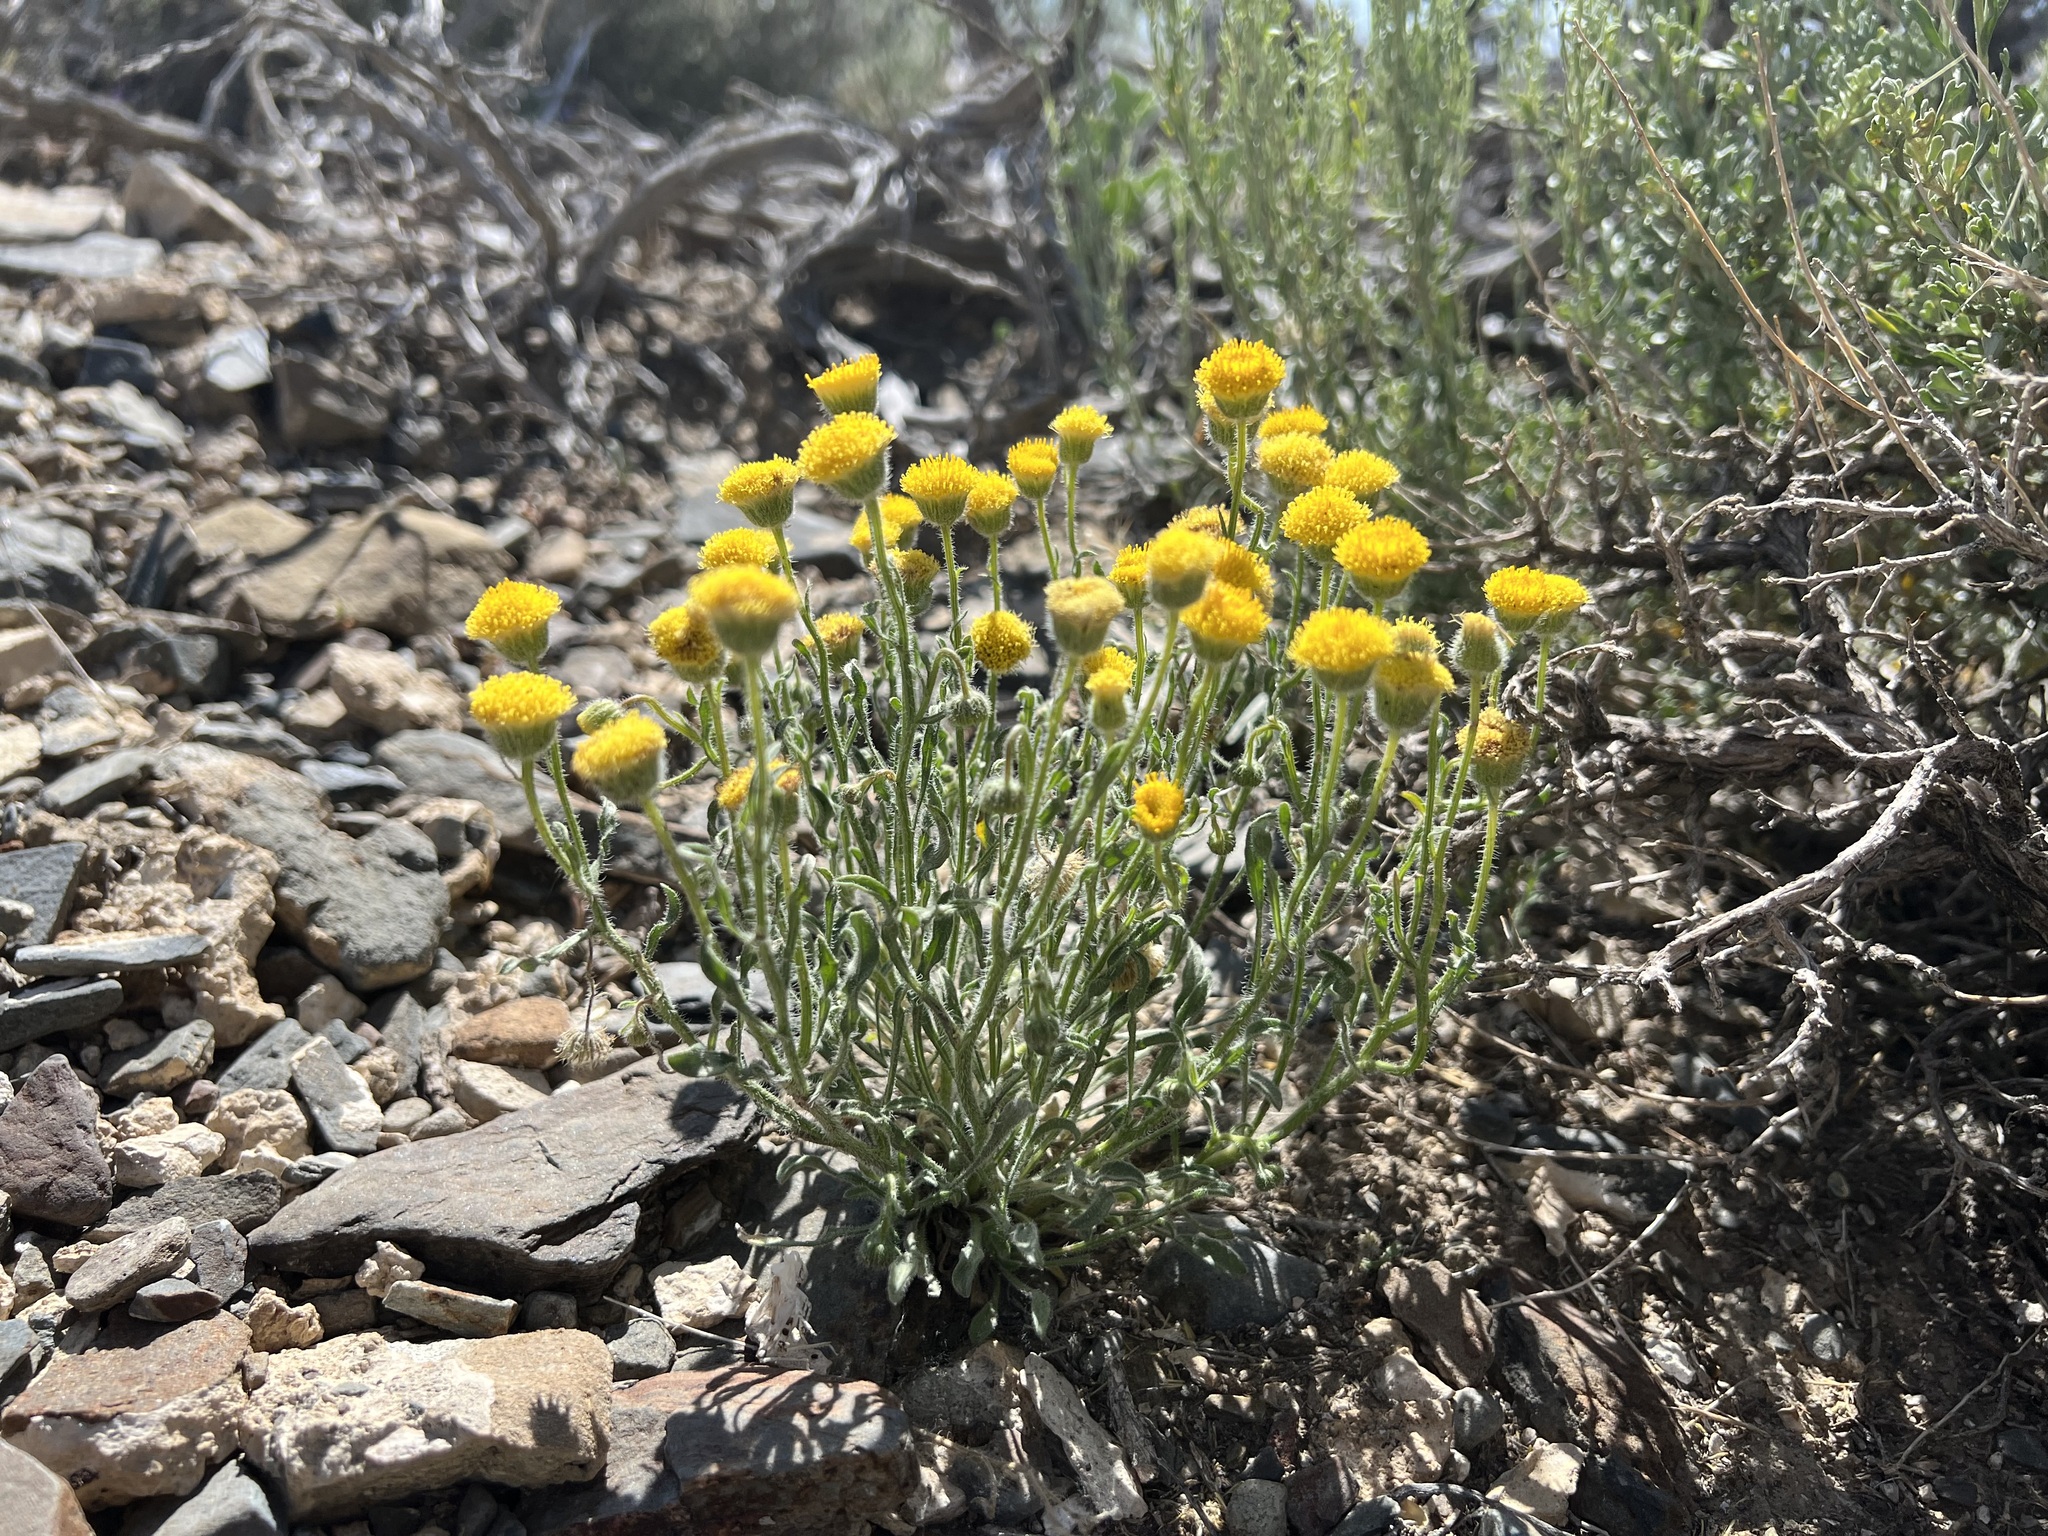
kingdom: Plantae
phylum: Tracheophyta
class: Magnoliopsida
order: Asterales
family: Asteraceae
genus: Erigeron
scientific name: Erigeron aphanactis
